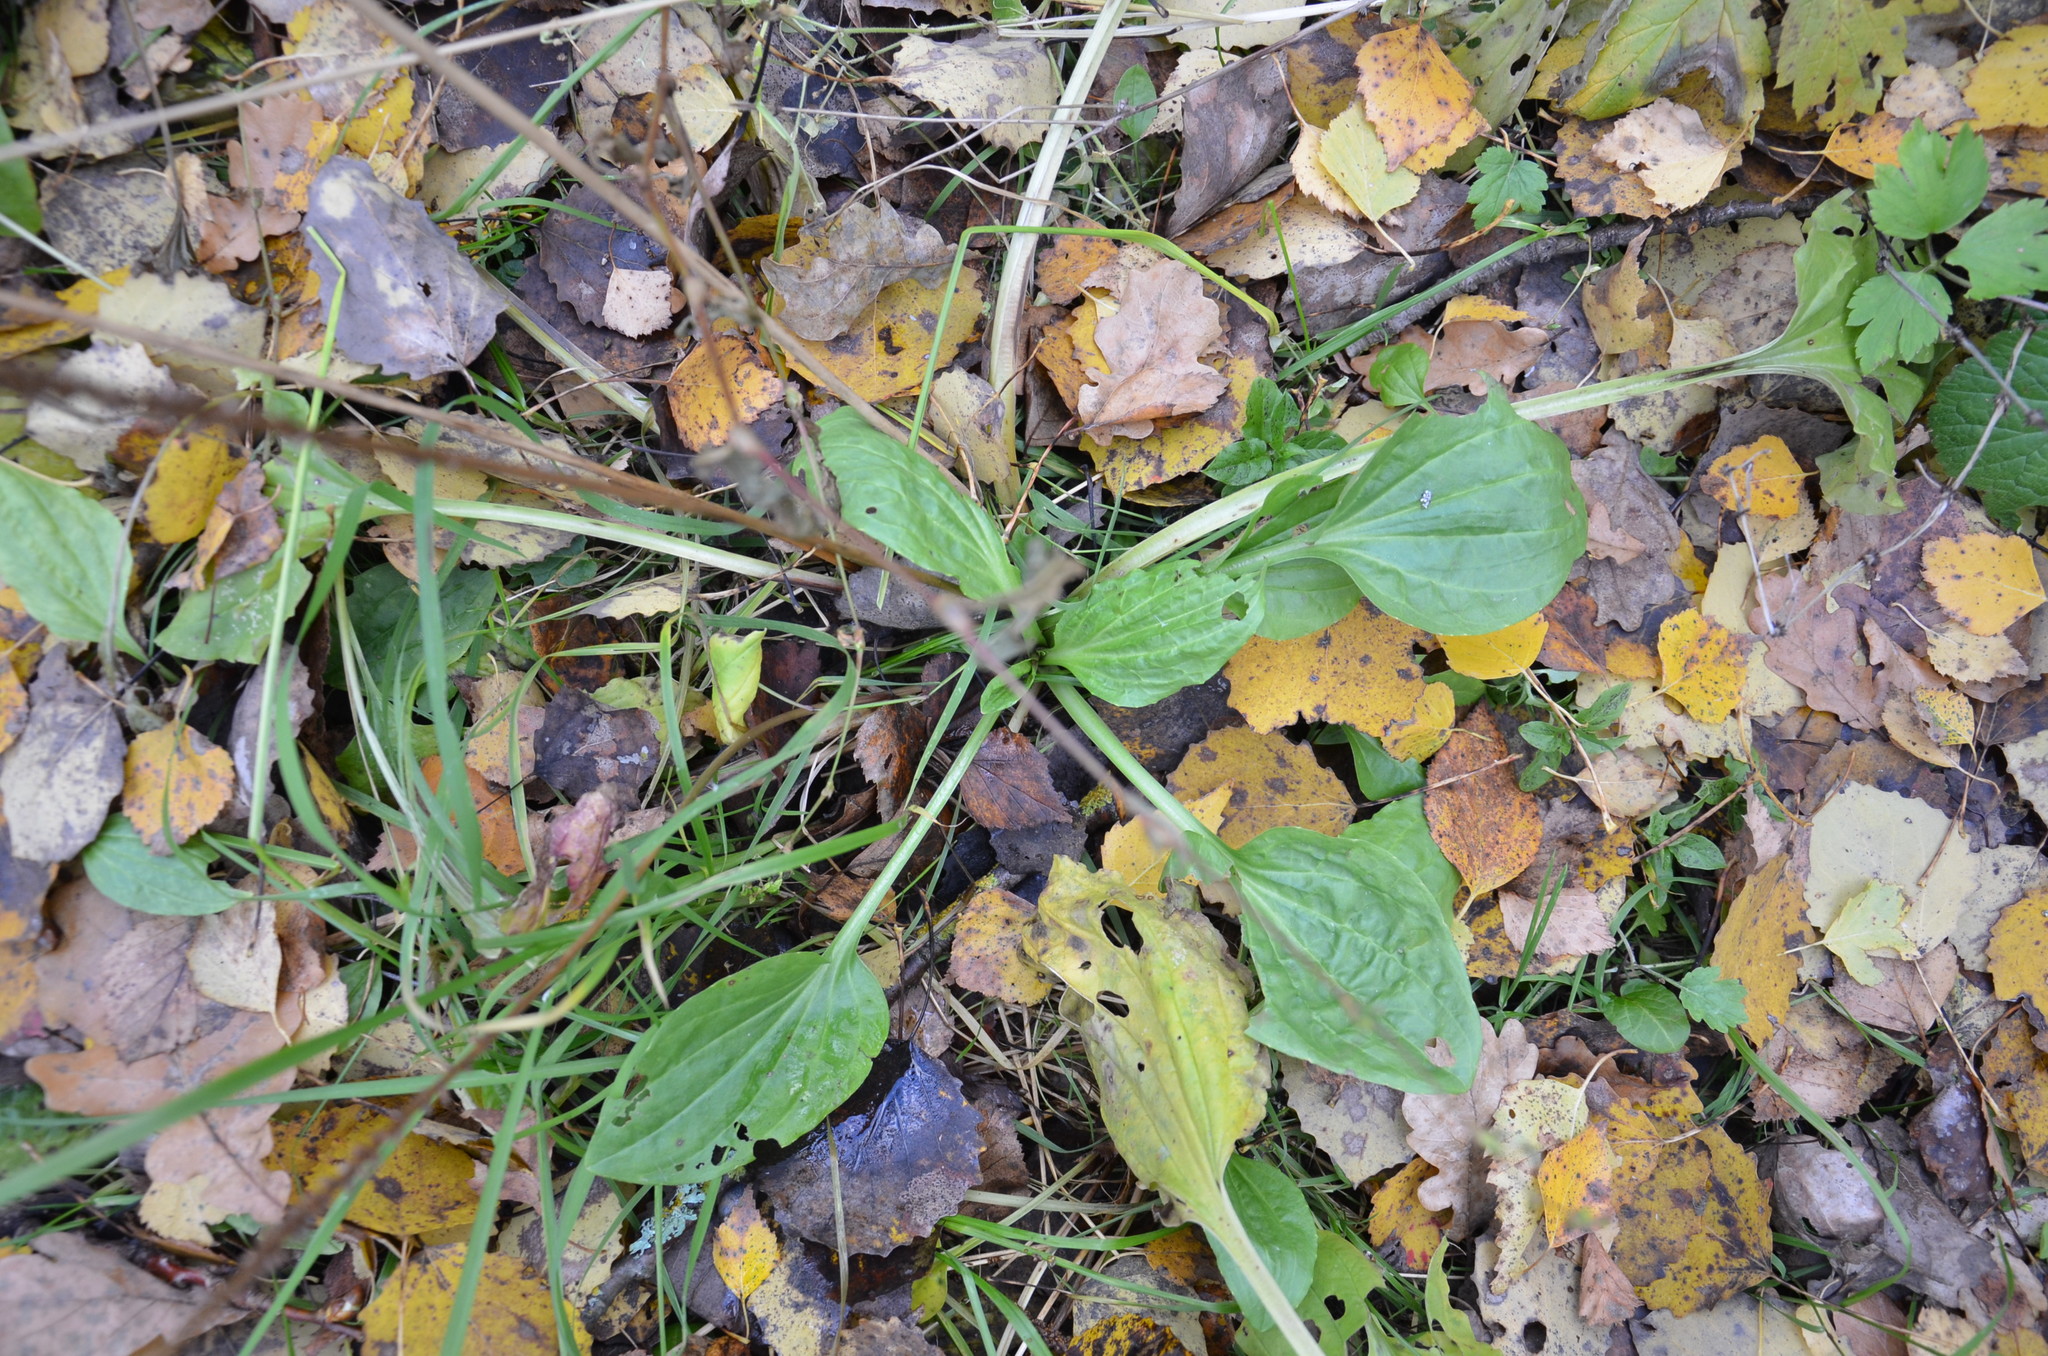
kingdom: Plantae
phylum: Tracheophyta
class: Magnoliopsida
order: Lamiales
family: Plantaginaceae
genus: Plantago
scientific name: Plantago major
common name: Common plantain
